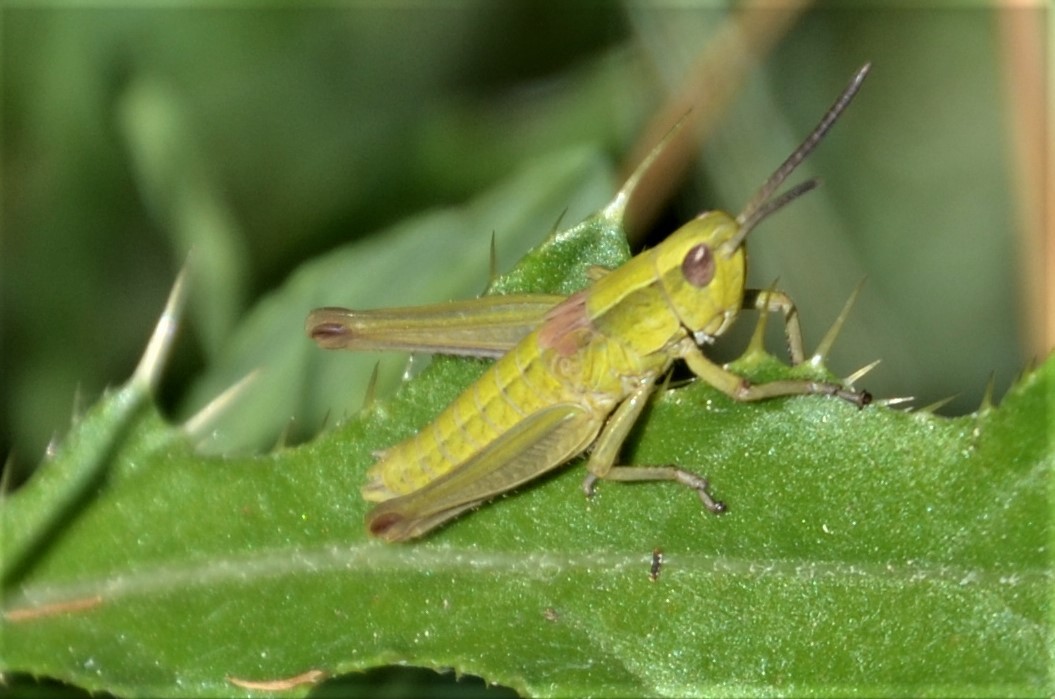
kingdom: Animalia
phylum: Arthropoda
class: Insecta
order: Orthoptera
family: Acrididae
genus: Euthystira
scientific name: Euthystira brachyptera
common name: Small gold grasshopper
